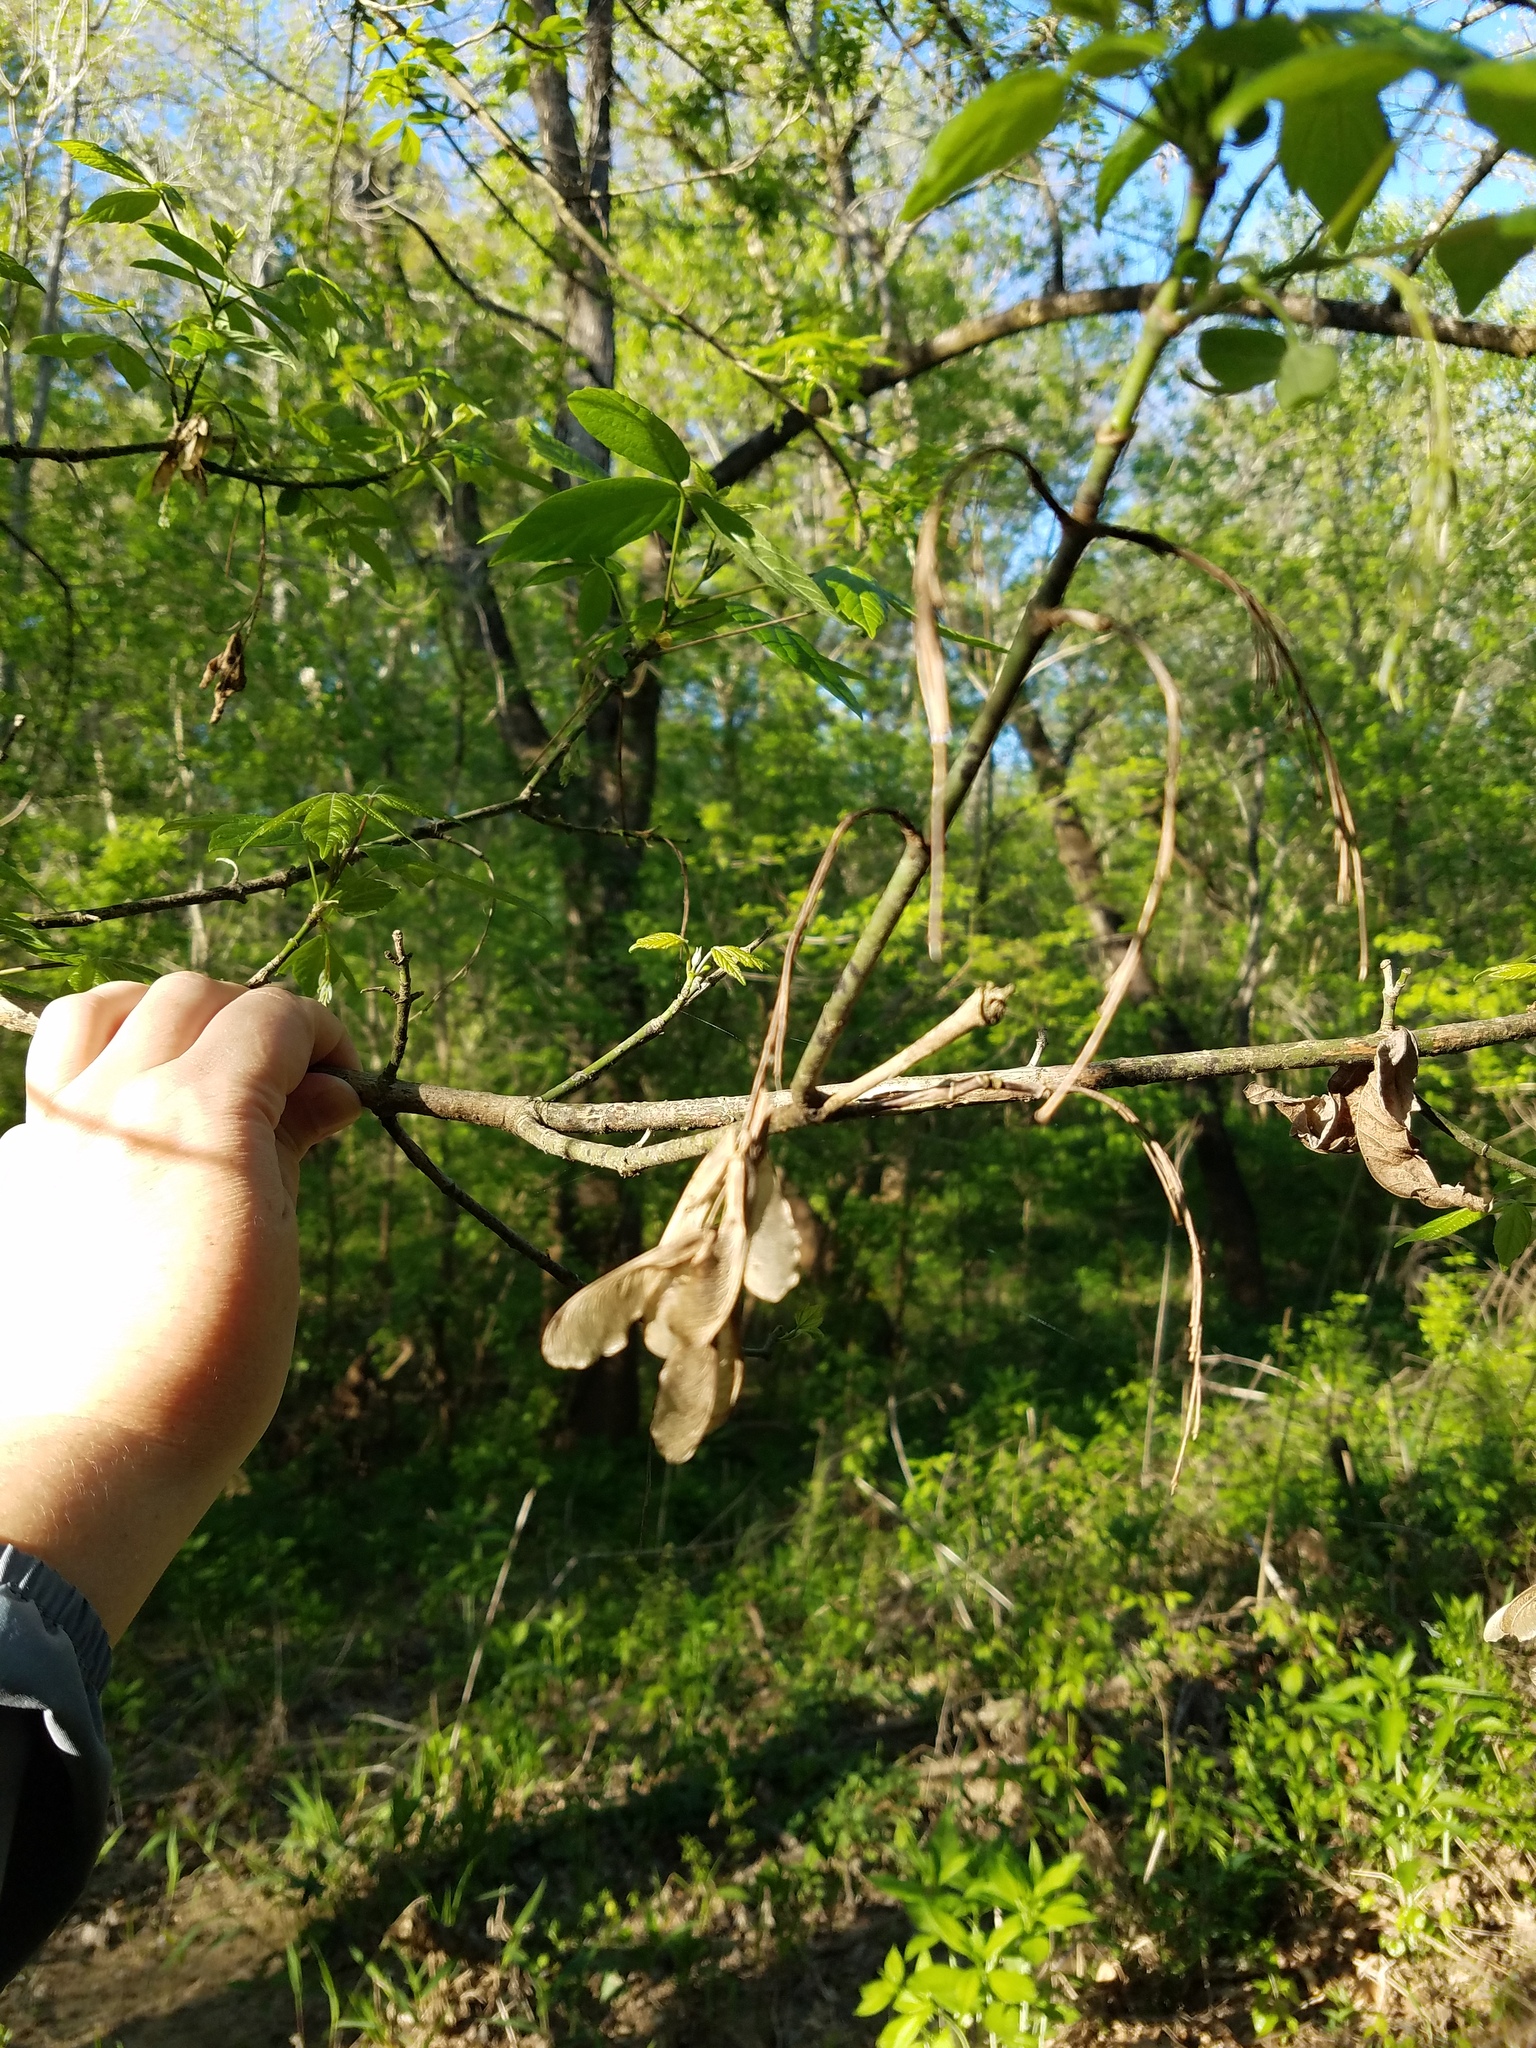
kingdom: Plantae
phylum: Tracheophyta
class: Magnoliopsida
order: Sapindales
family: Sapindaceae
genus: Acer
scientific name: Acer negundo
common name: Ashleaf maple
